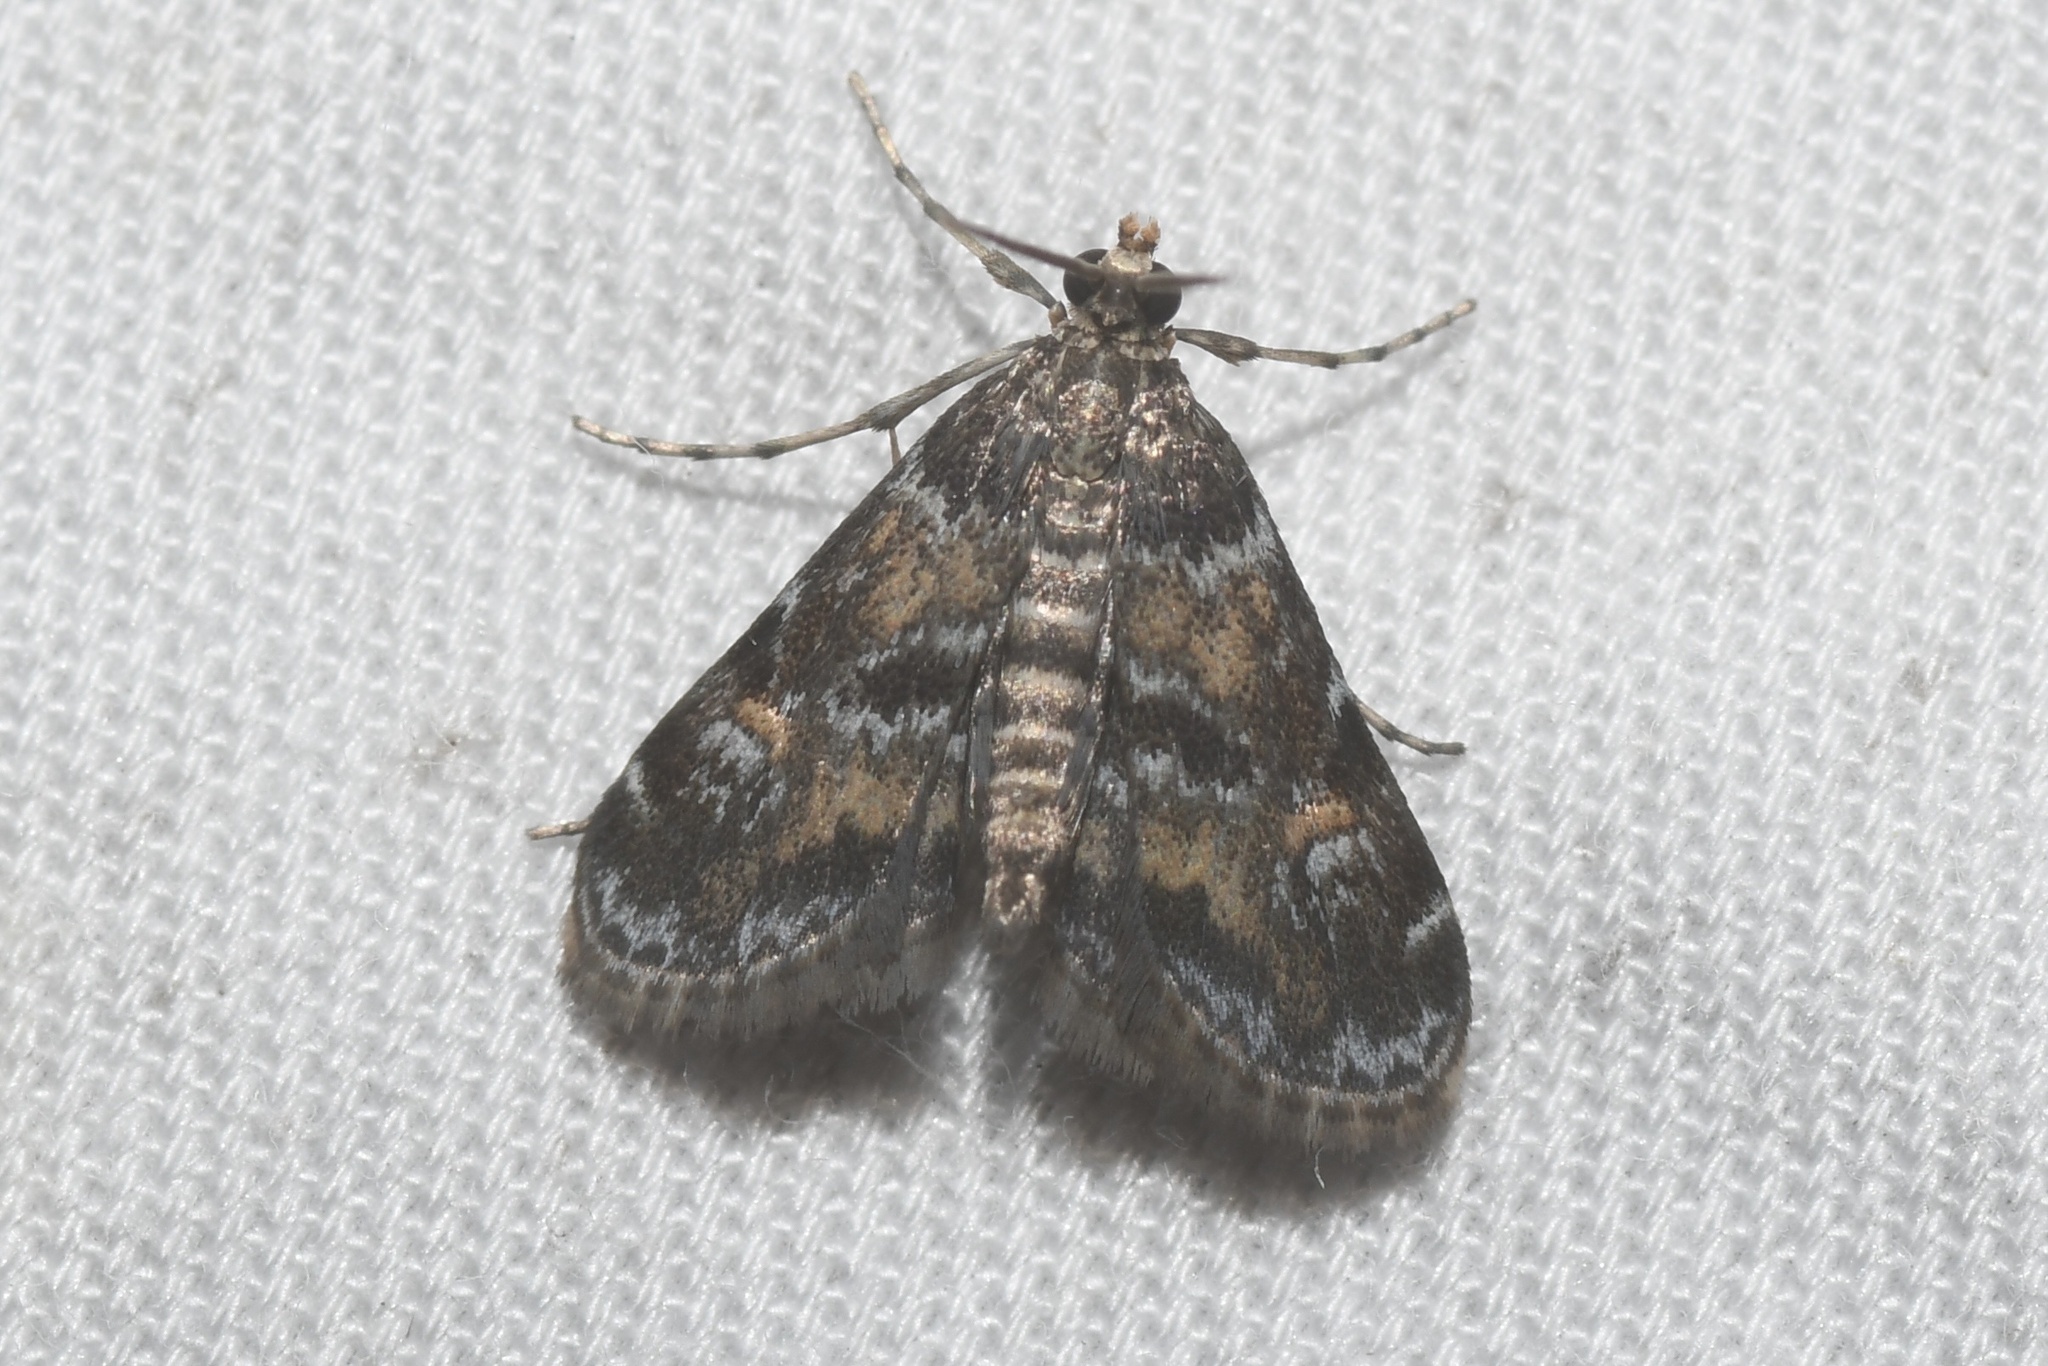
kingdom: Animalia
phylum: Arthropoda
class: Insecta
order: Lepidoptera
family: Crambidae
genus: Elophila
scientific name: Elophila obliteralis
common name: Waterlily leafcutter moth
